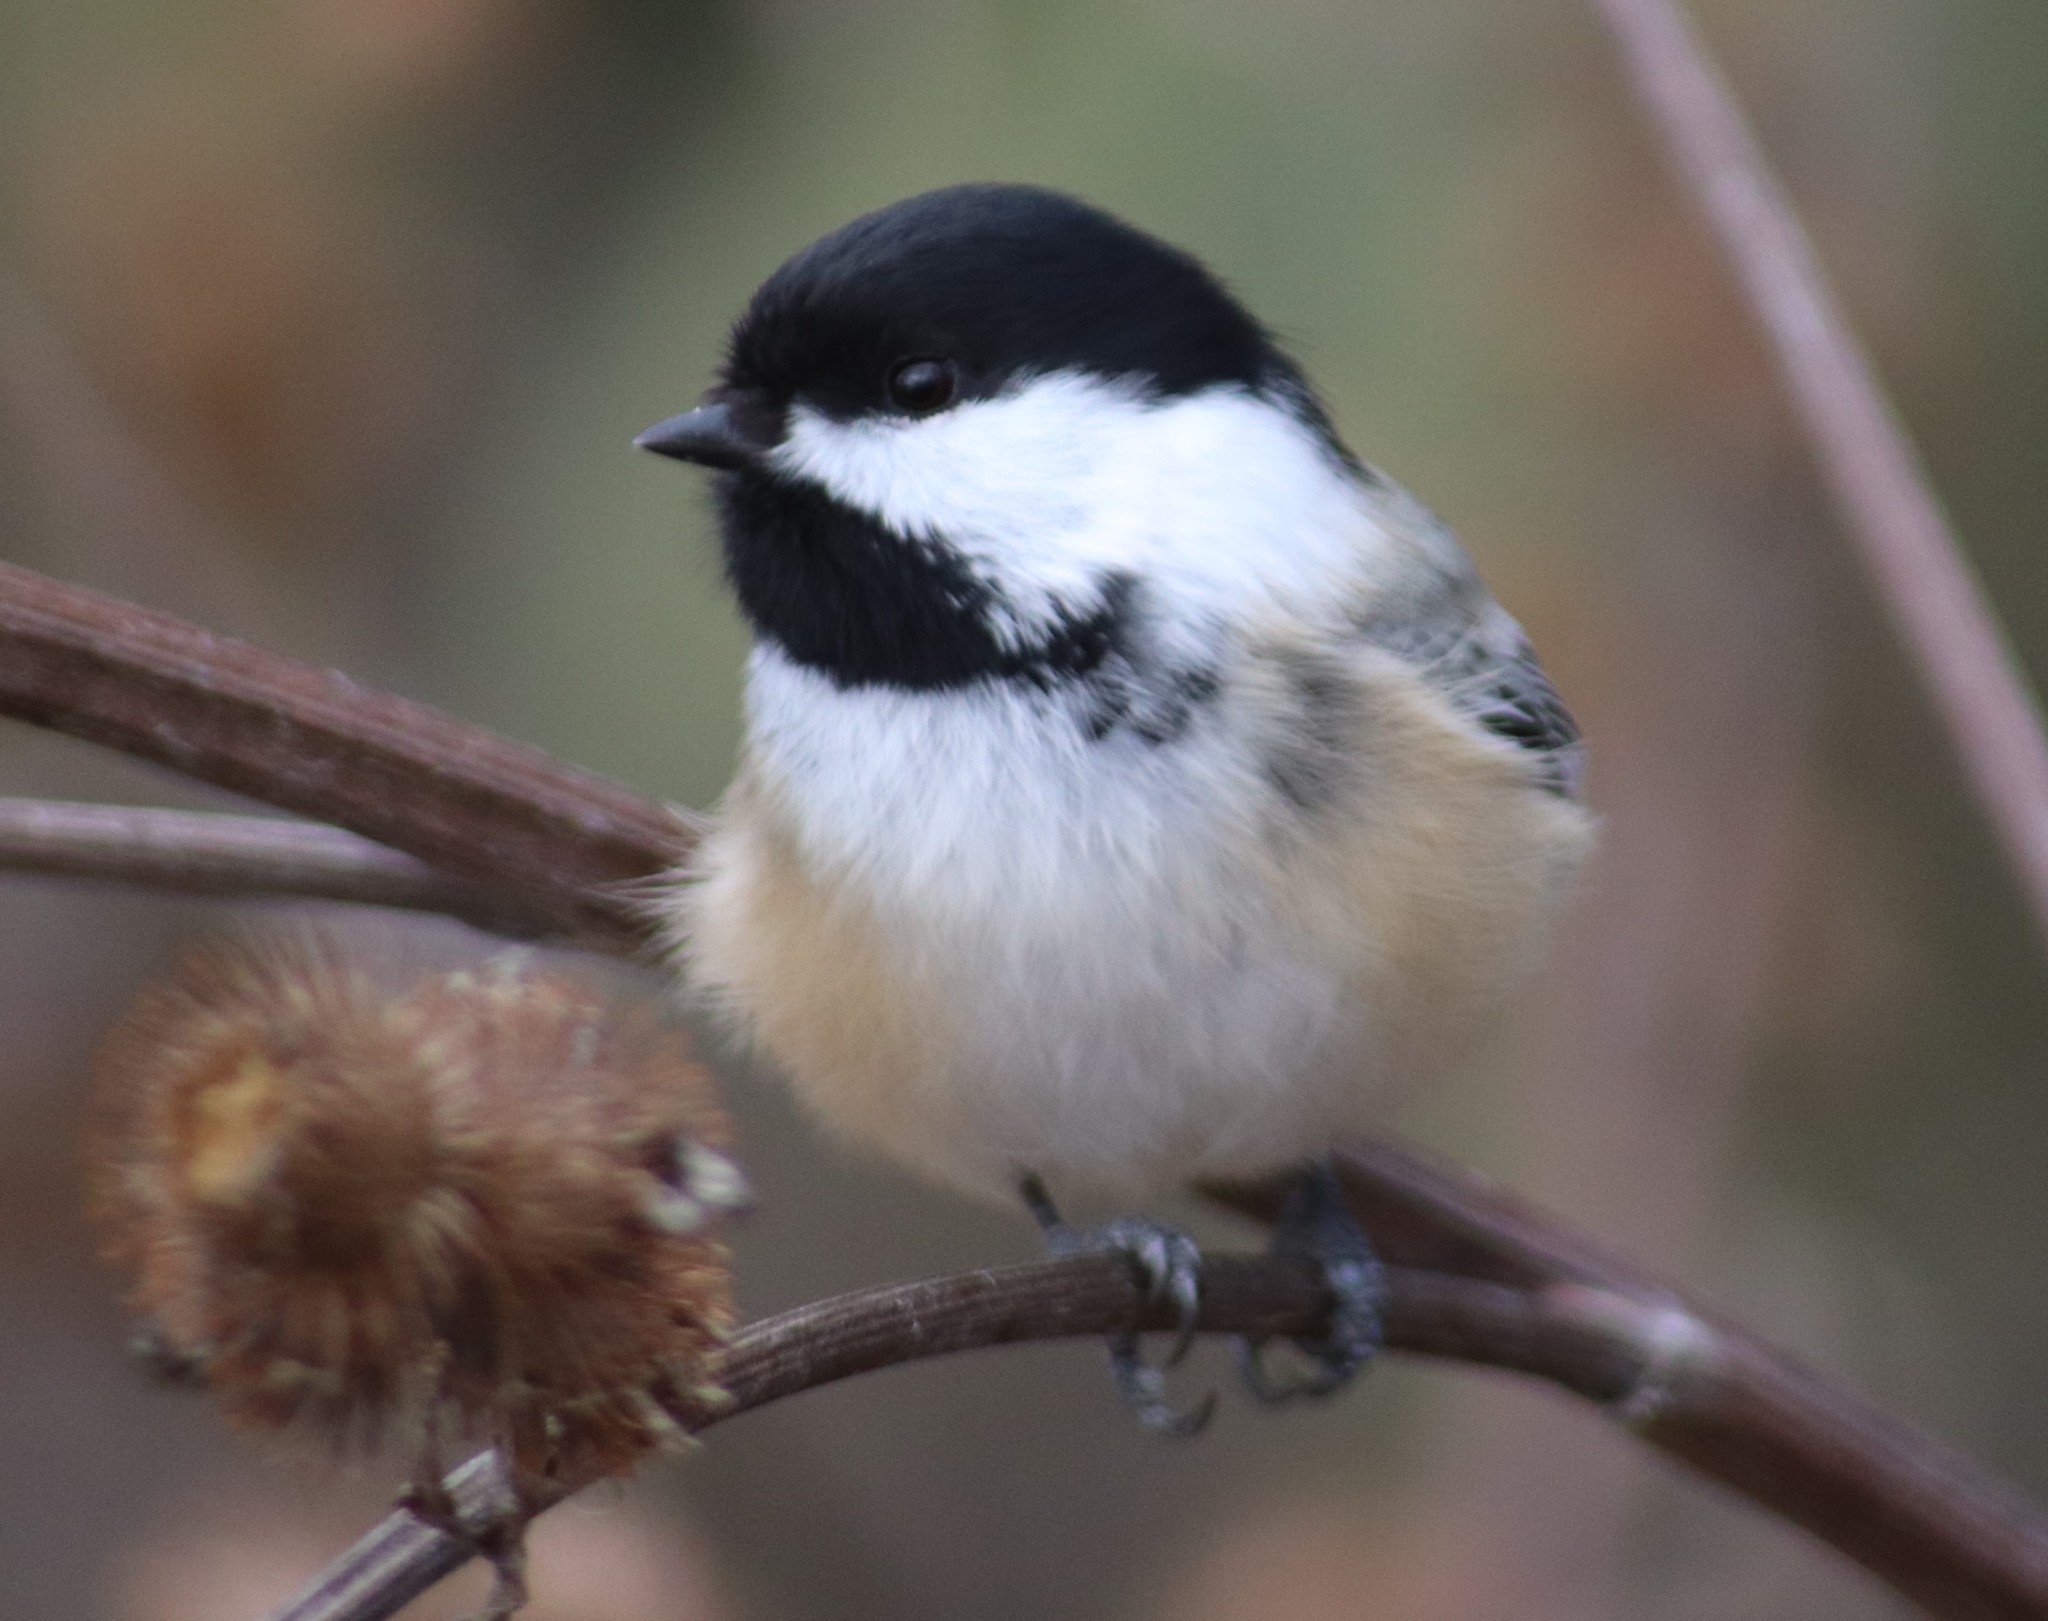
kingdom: Animalia
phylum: Chordata
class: Aves
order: Passeriformes
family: Paridae
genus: Poecile
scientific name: Poecile atricapillus
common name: Black-capped chickadee
